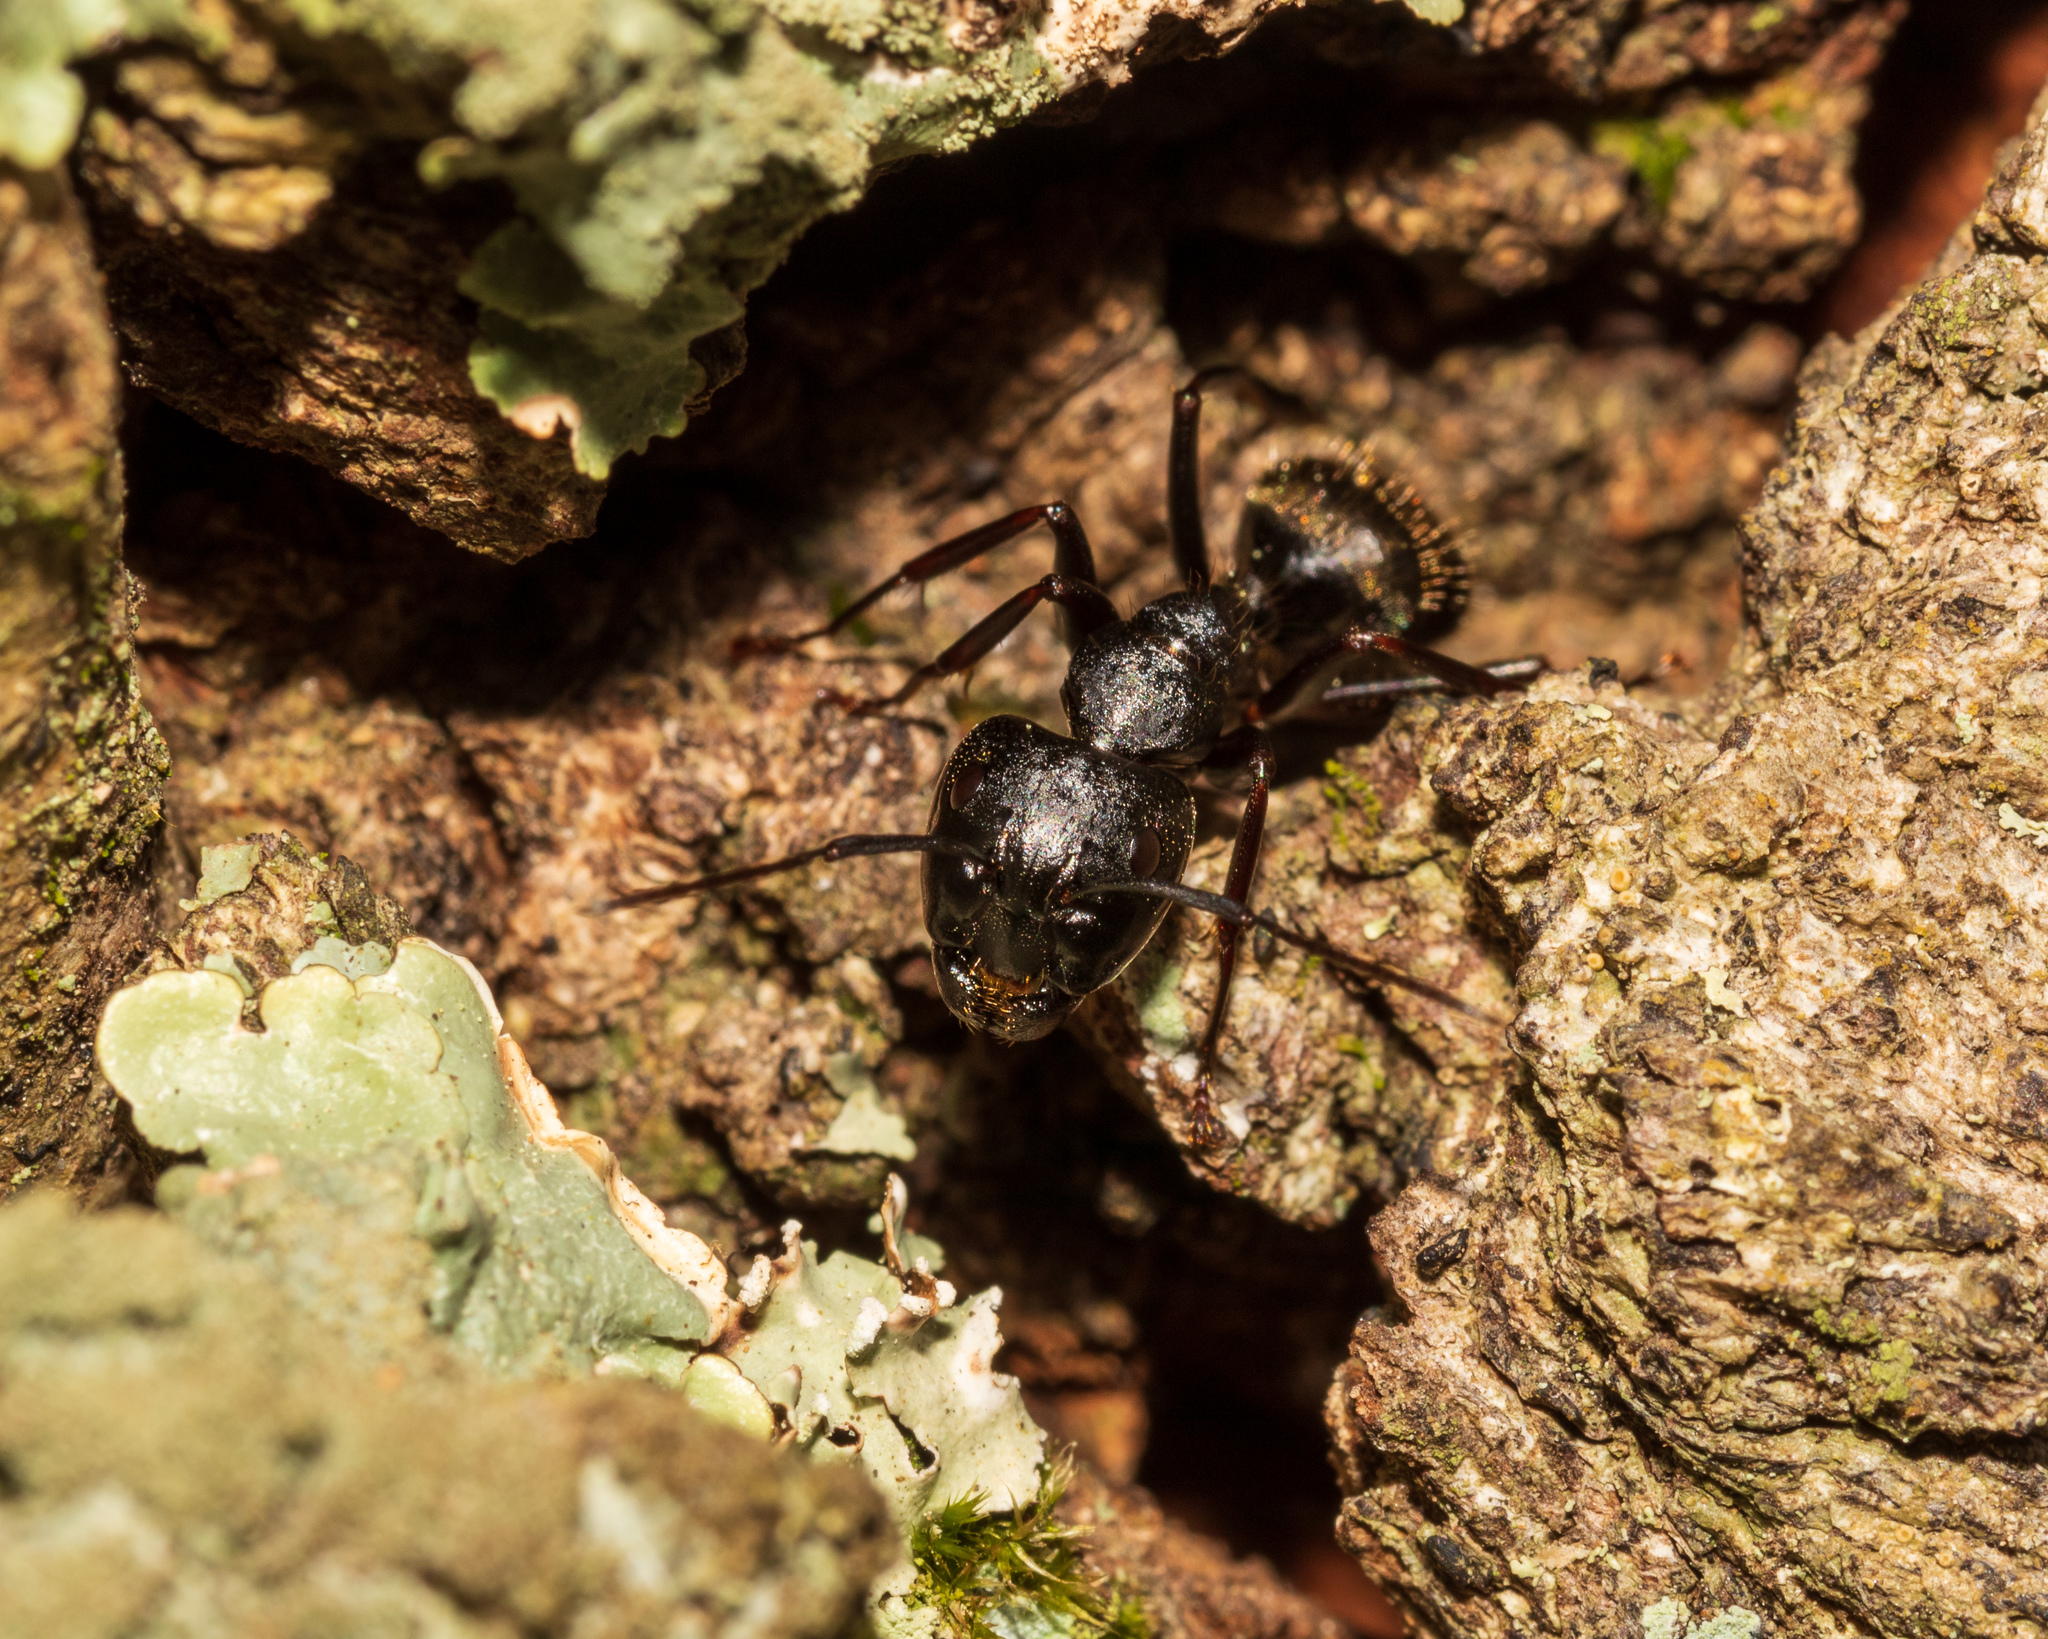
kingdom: Animalia
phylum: Arthropoda
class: Insecta
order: Hymenoptera
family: Formicidae
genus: Camponotus
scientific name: Camponotus pennsylvanicus
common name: Black carpenter ant
